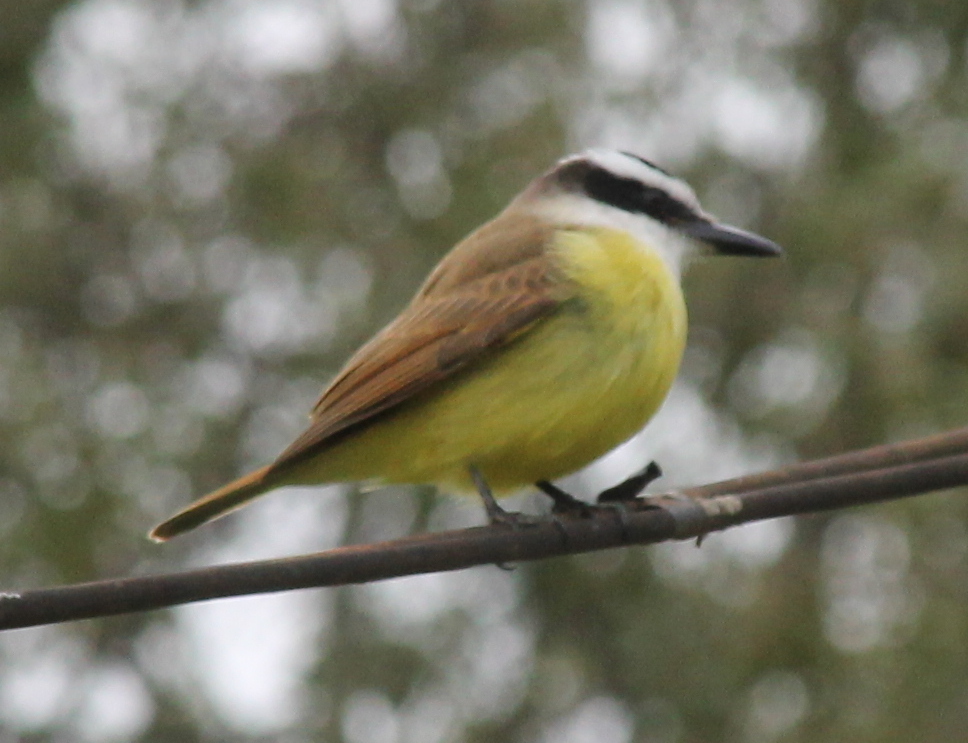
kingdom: Animalia
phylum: Chordata
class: Aves
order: Passeriformes
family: Tyrannidae
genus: Pitangus
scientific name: Pitangus sulphuratus
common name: Great kiskadee
